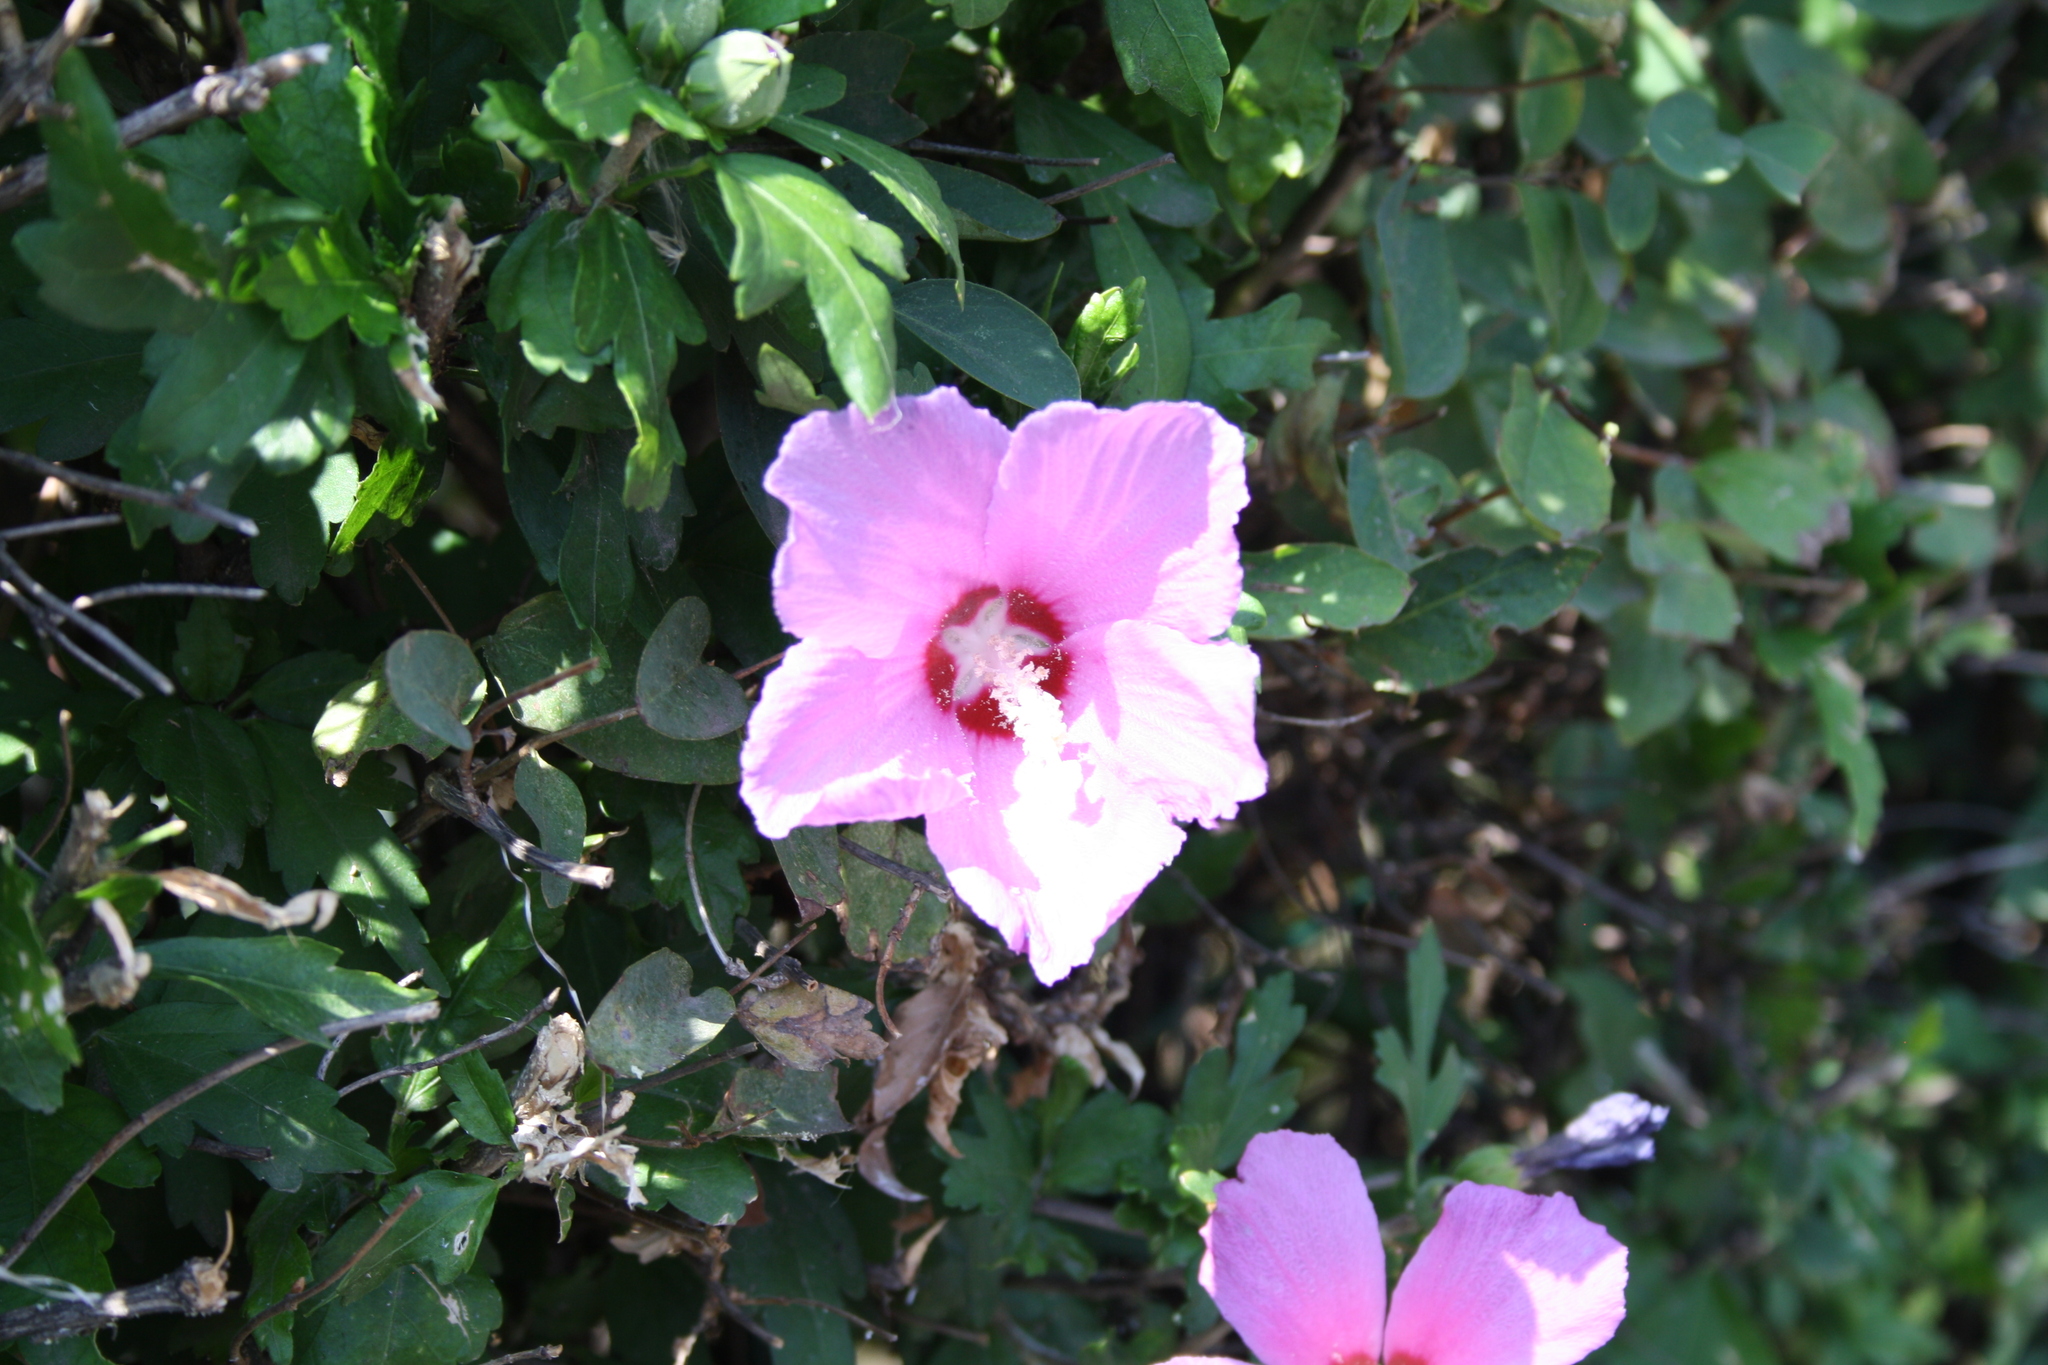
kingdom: Plantae
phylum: Tracheophyta
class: Magnoliopsida
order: Malvales
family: Malvaceae
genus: Hibiscus
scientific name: Hibiscus syriacus
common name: Syrian ketmia
